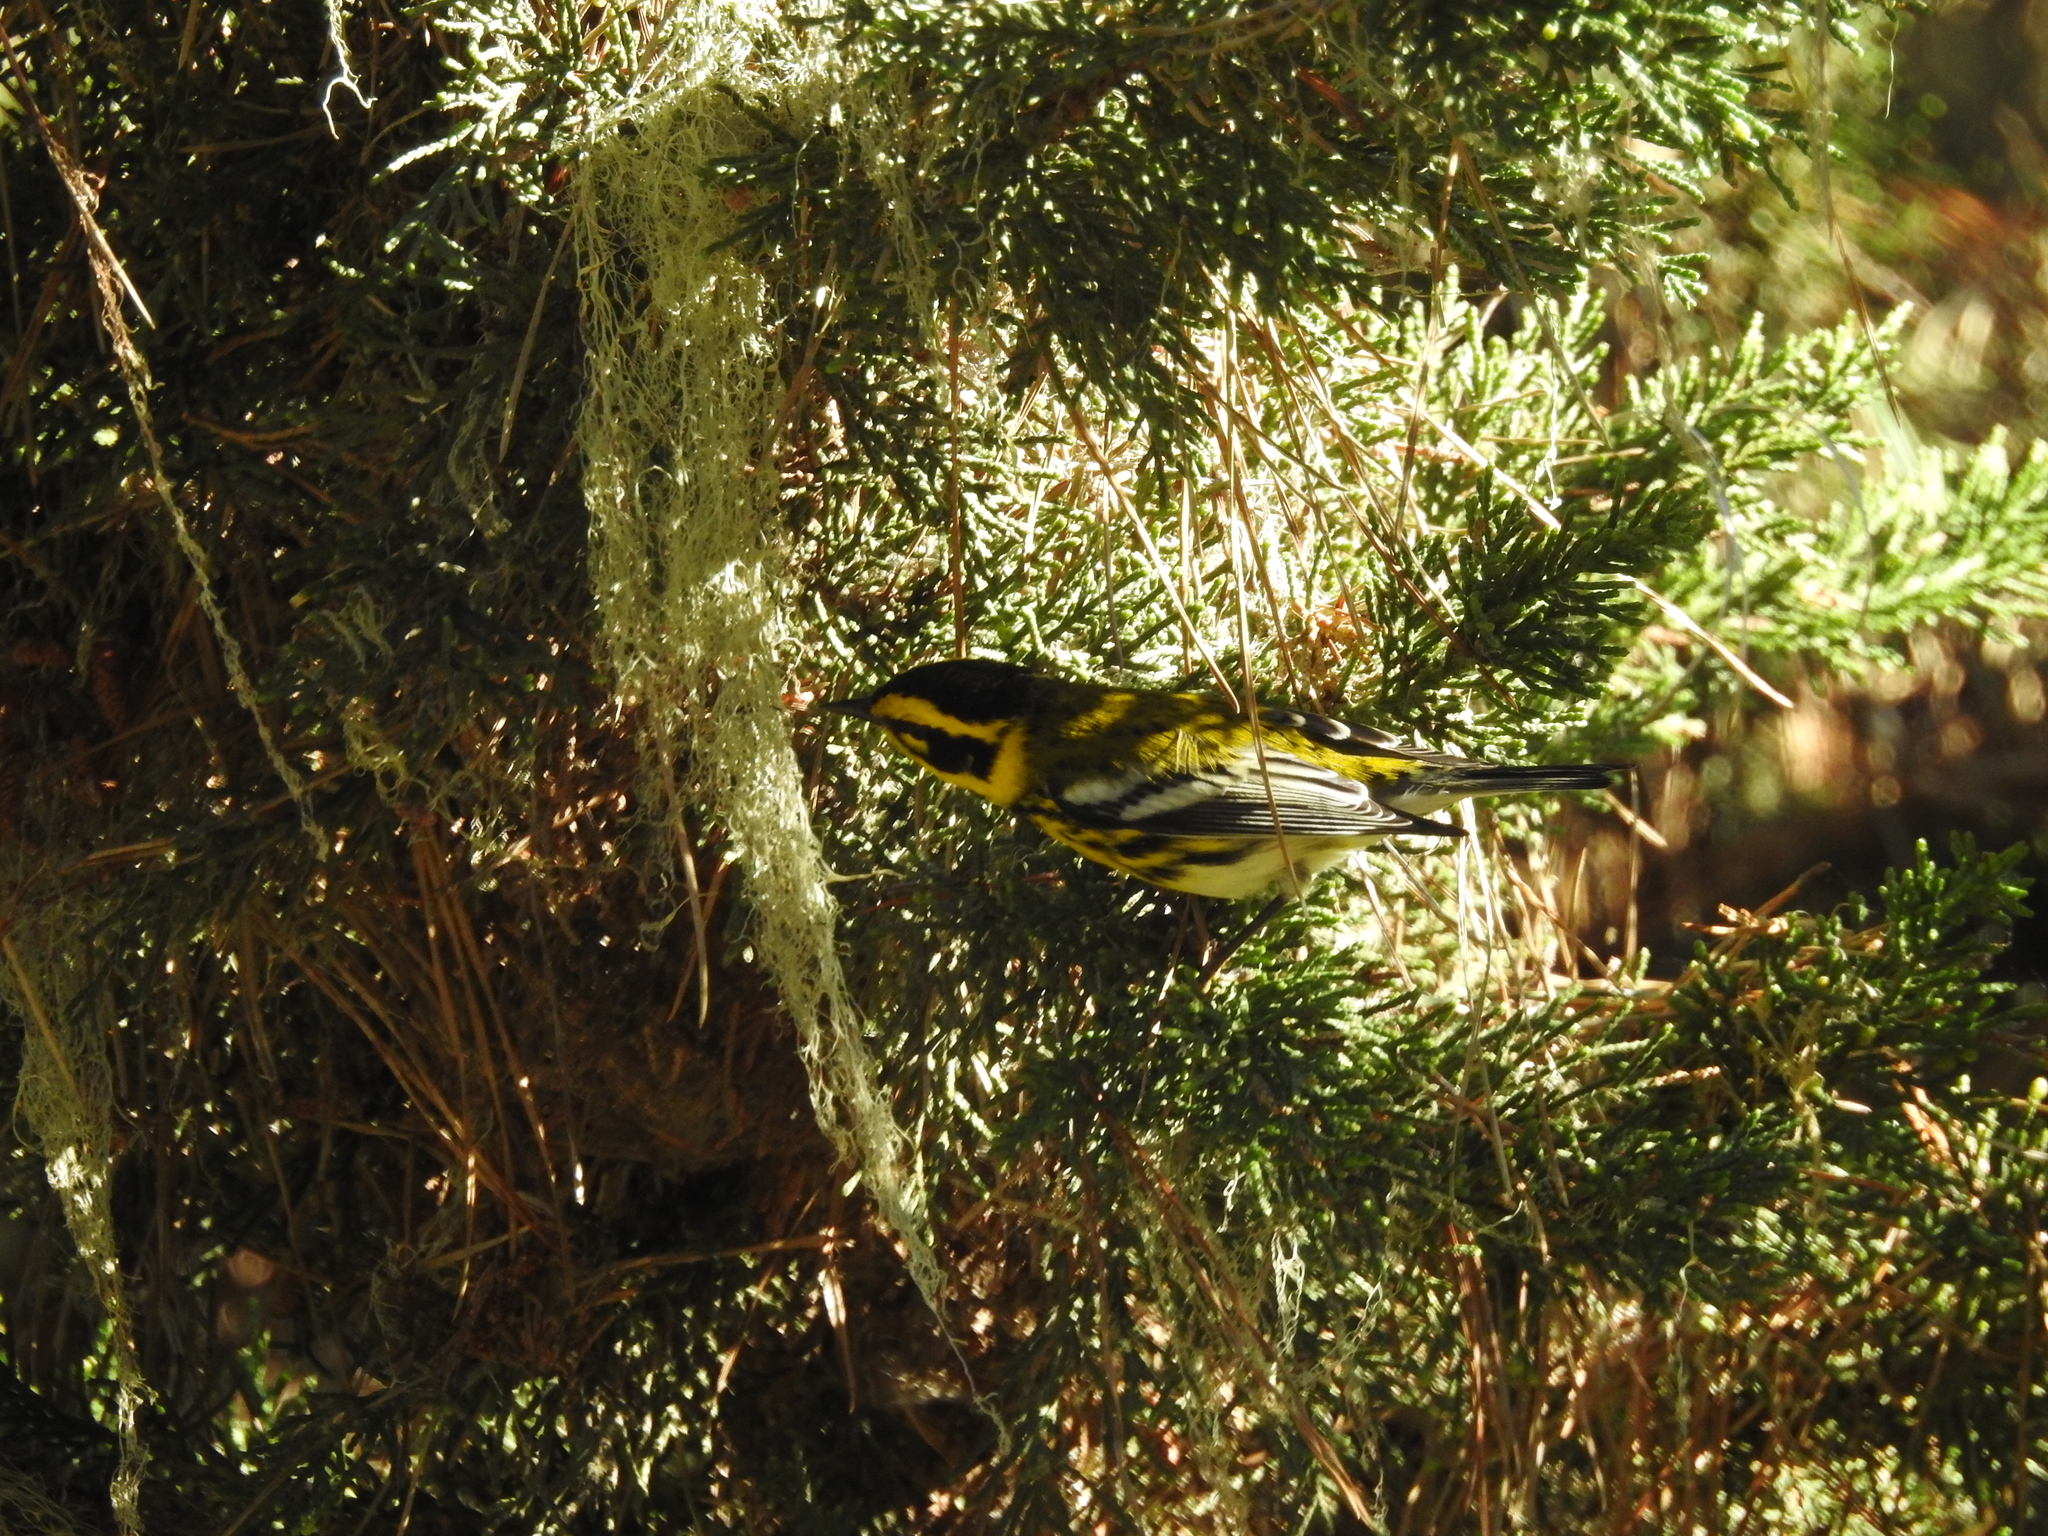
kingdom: Animalia
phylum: Chordata
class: Aves
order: Passeriformes
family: Parulidae
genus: Setophaga
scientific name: Setophaga townsendi
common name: Townsend's warbler
